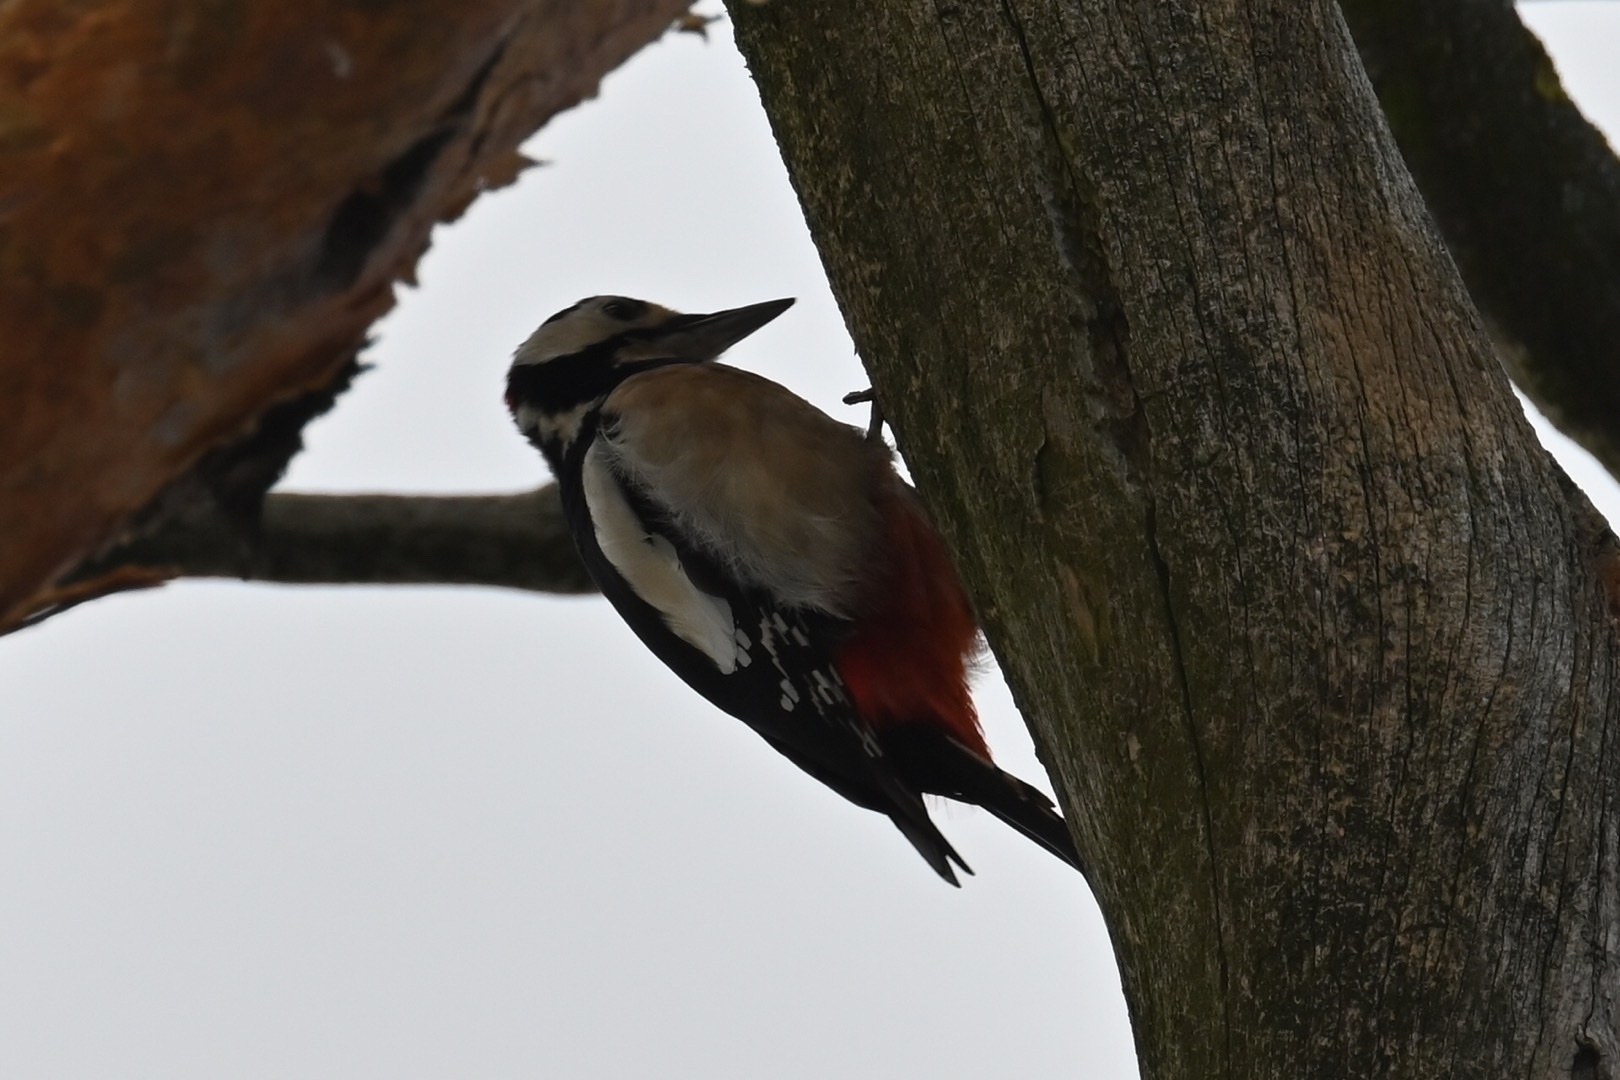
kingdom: Animalia
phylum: Chordata
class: Aves
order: Piciformes
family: Picidae
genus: Dendrocopos
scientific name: Dendrocopos major
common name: Great spotted woodpecker
